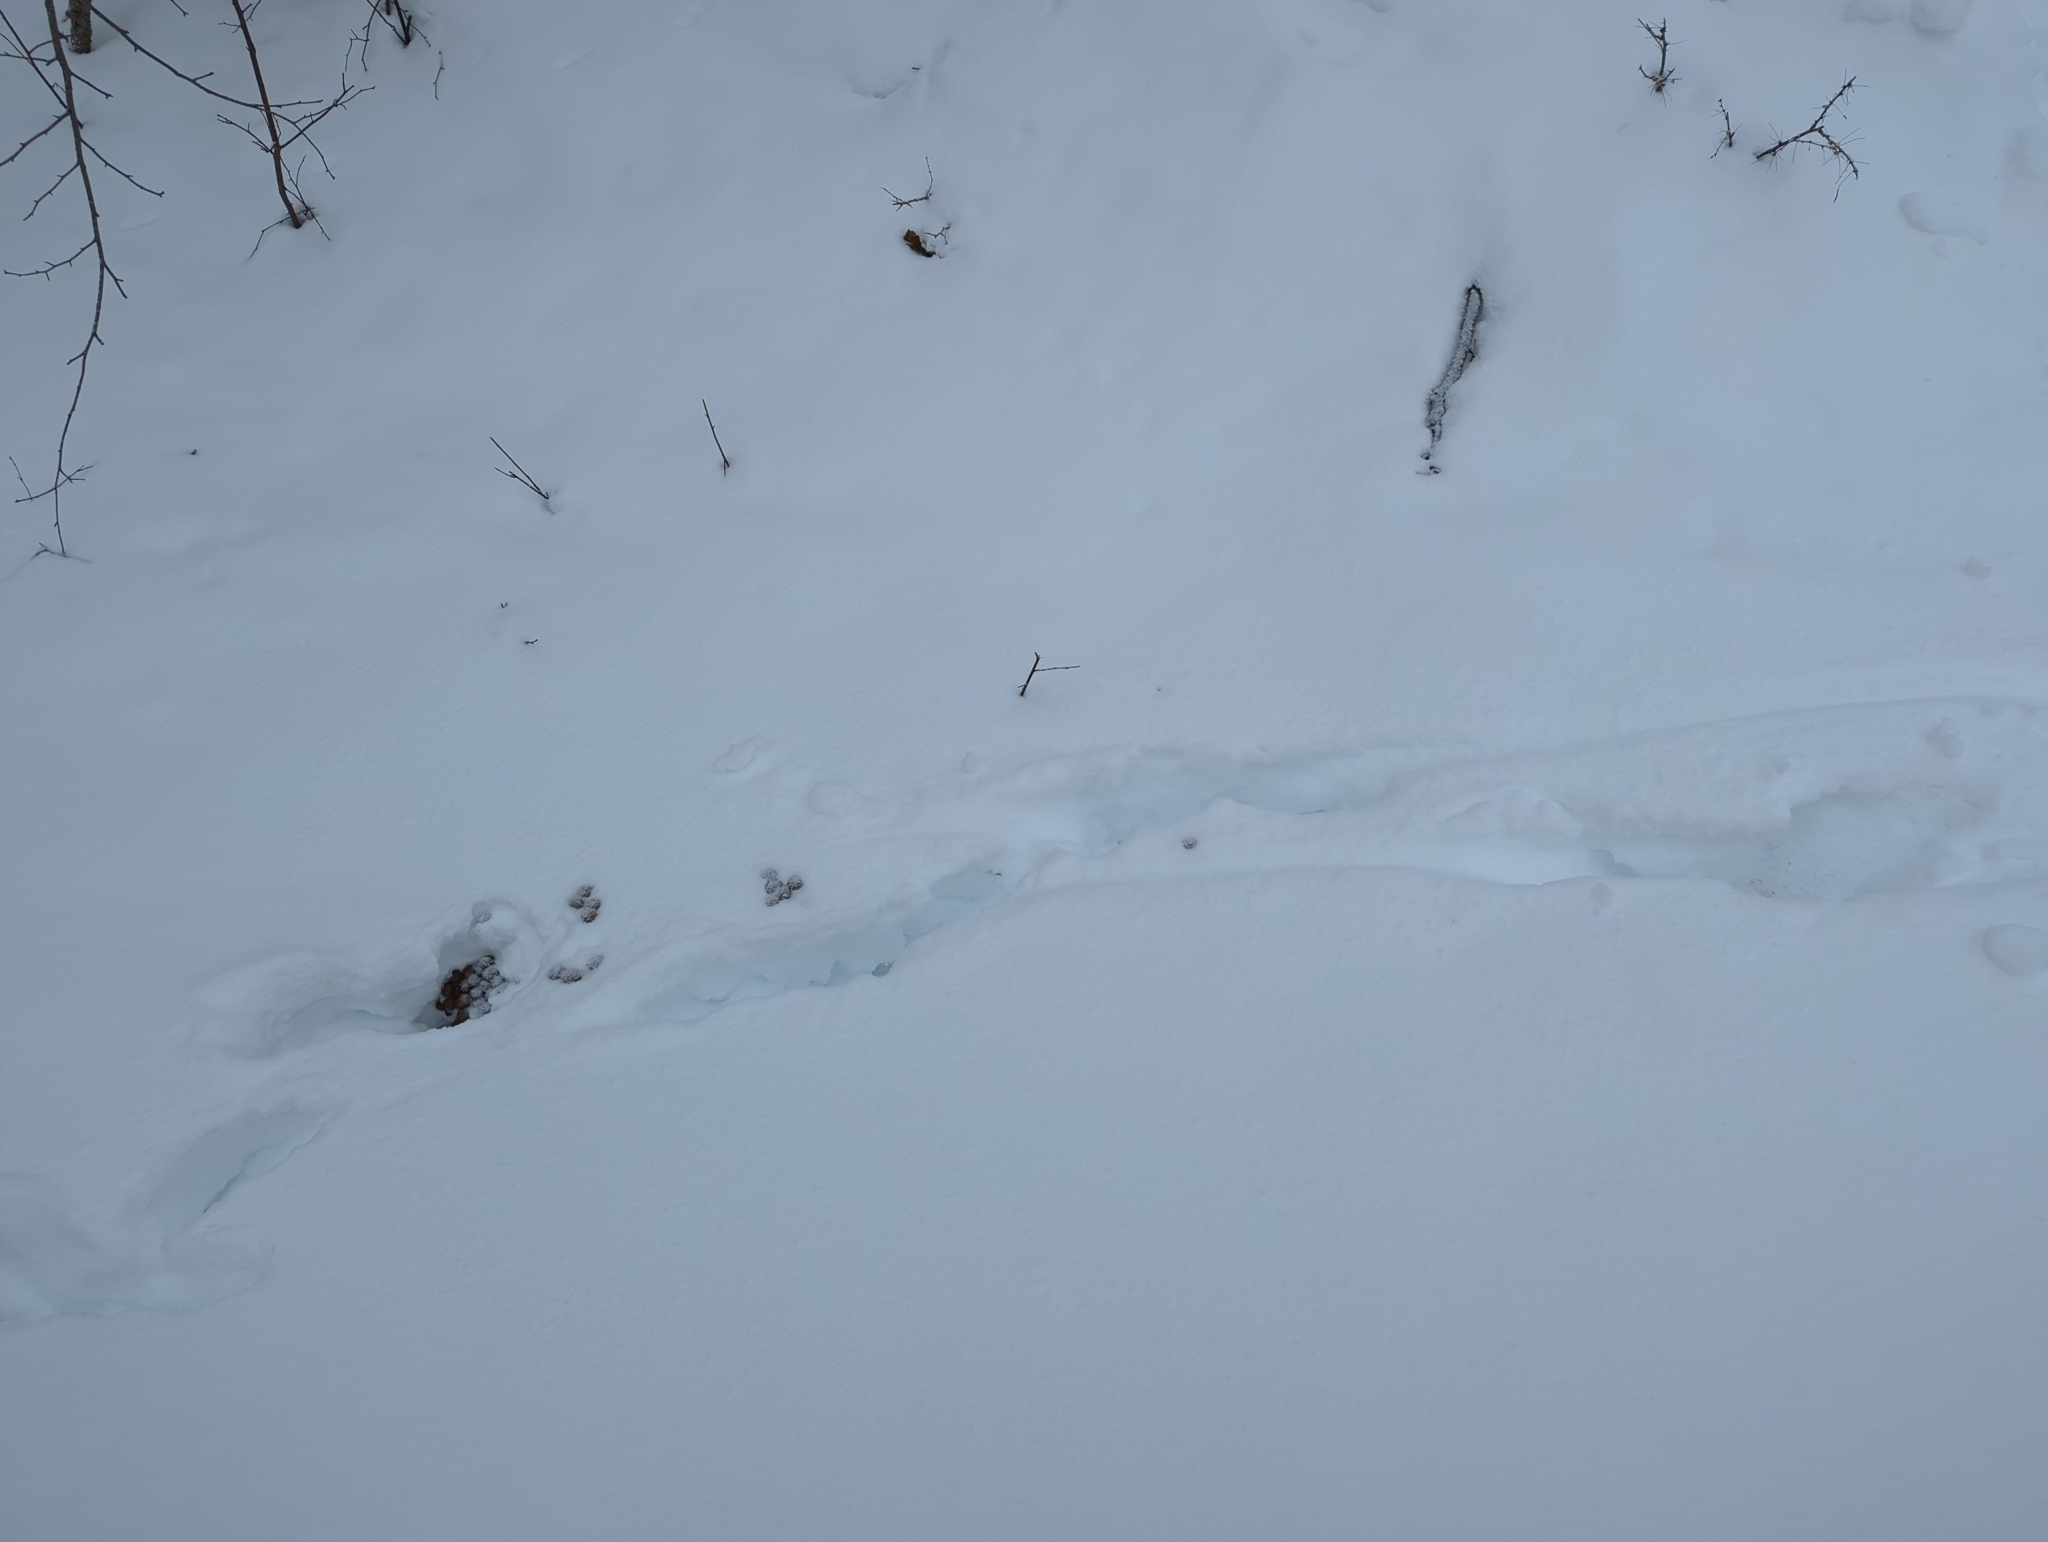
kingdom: Animalia
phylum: Chordata
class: Mammalia
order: Artiodactyla
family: Cervidae
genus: Alces
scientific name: Alces alces
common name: Moose
